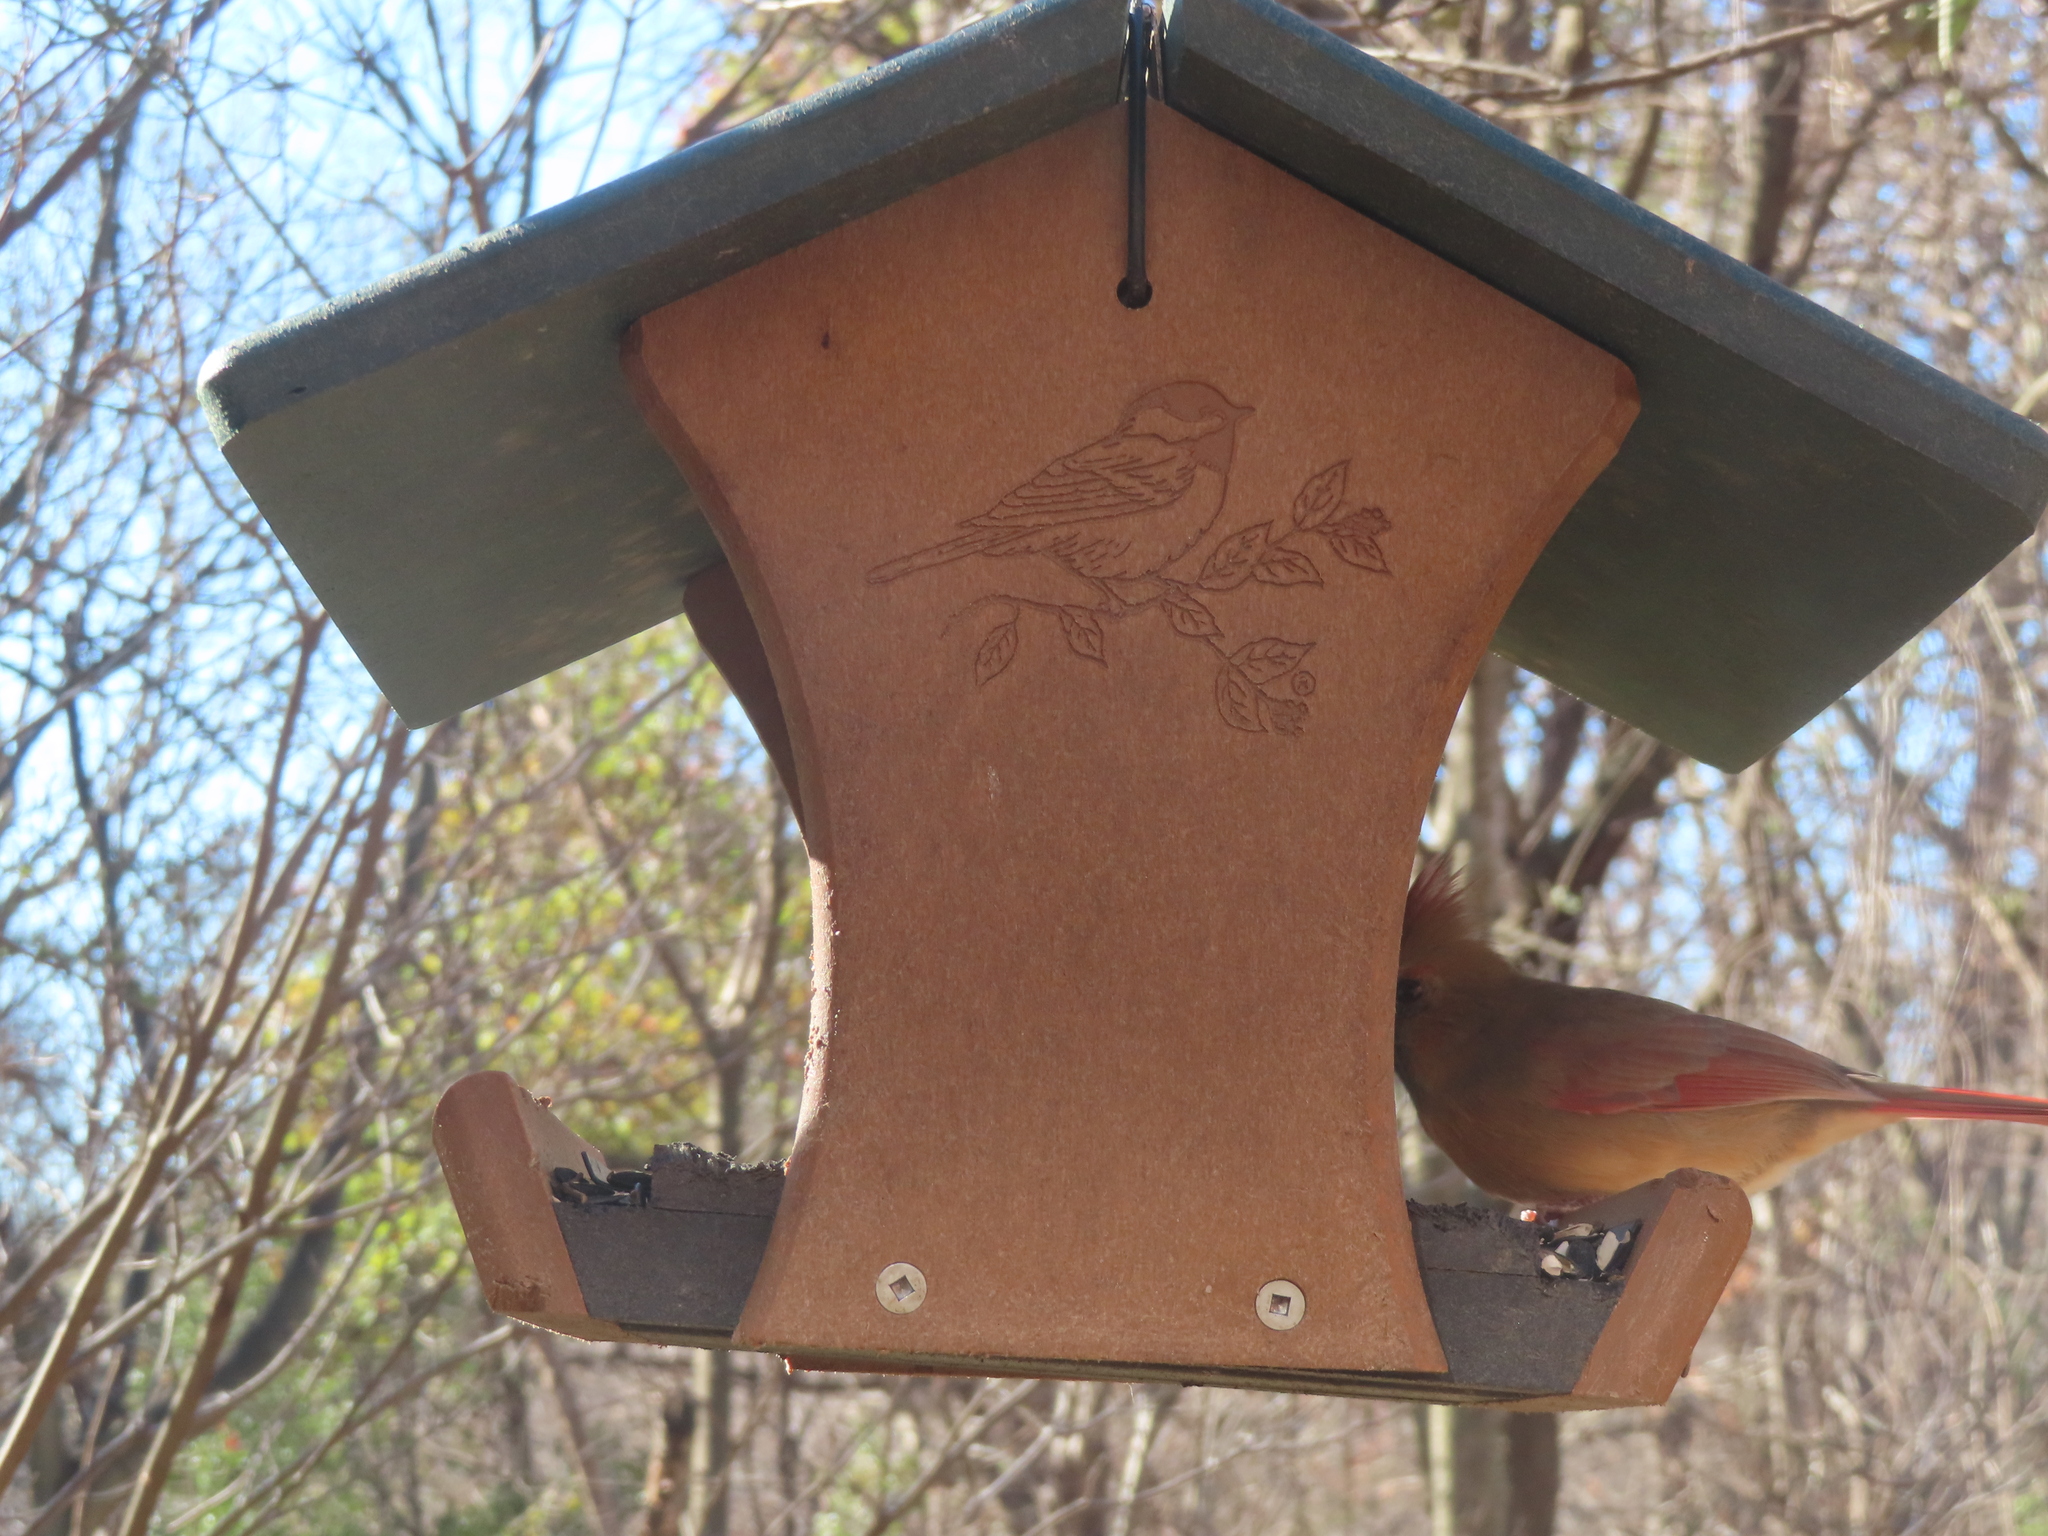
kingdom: Animalia
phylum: Chordata
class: Aves
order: Passeriformes
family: Cardinalidae
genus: Cardinalis
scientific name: Cardinalis cardinalis
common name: Northern cardinal
